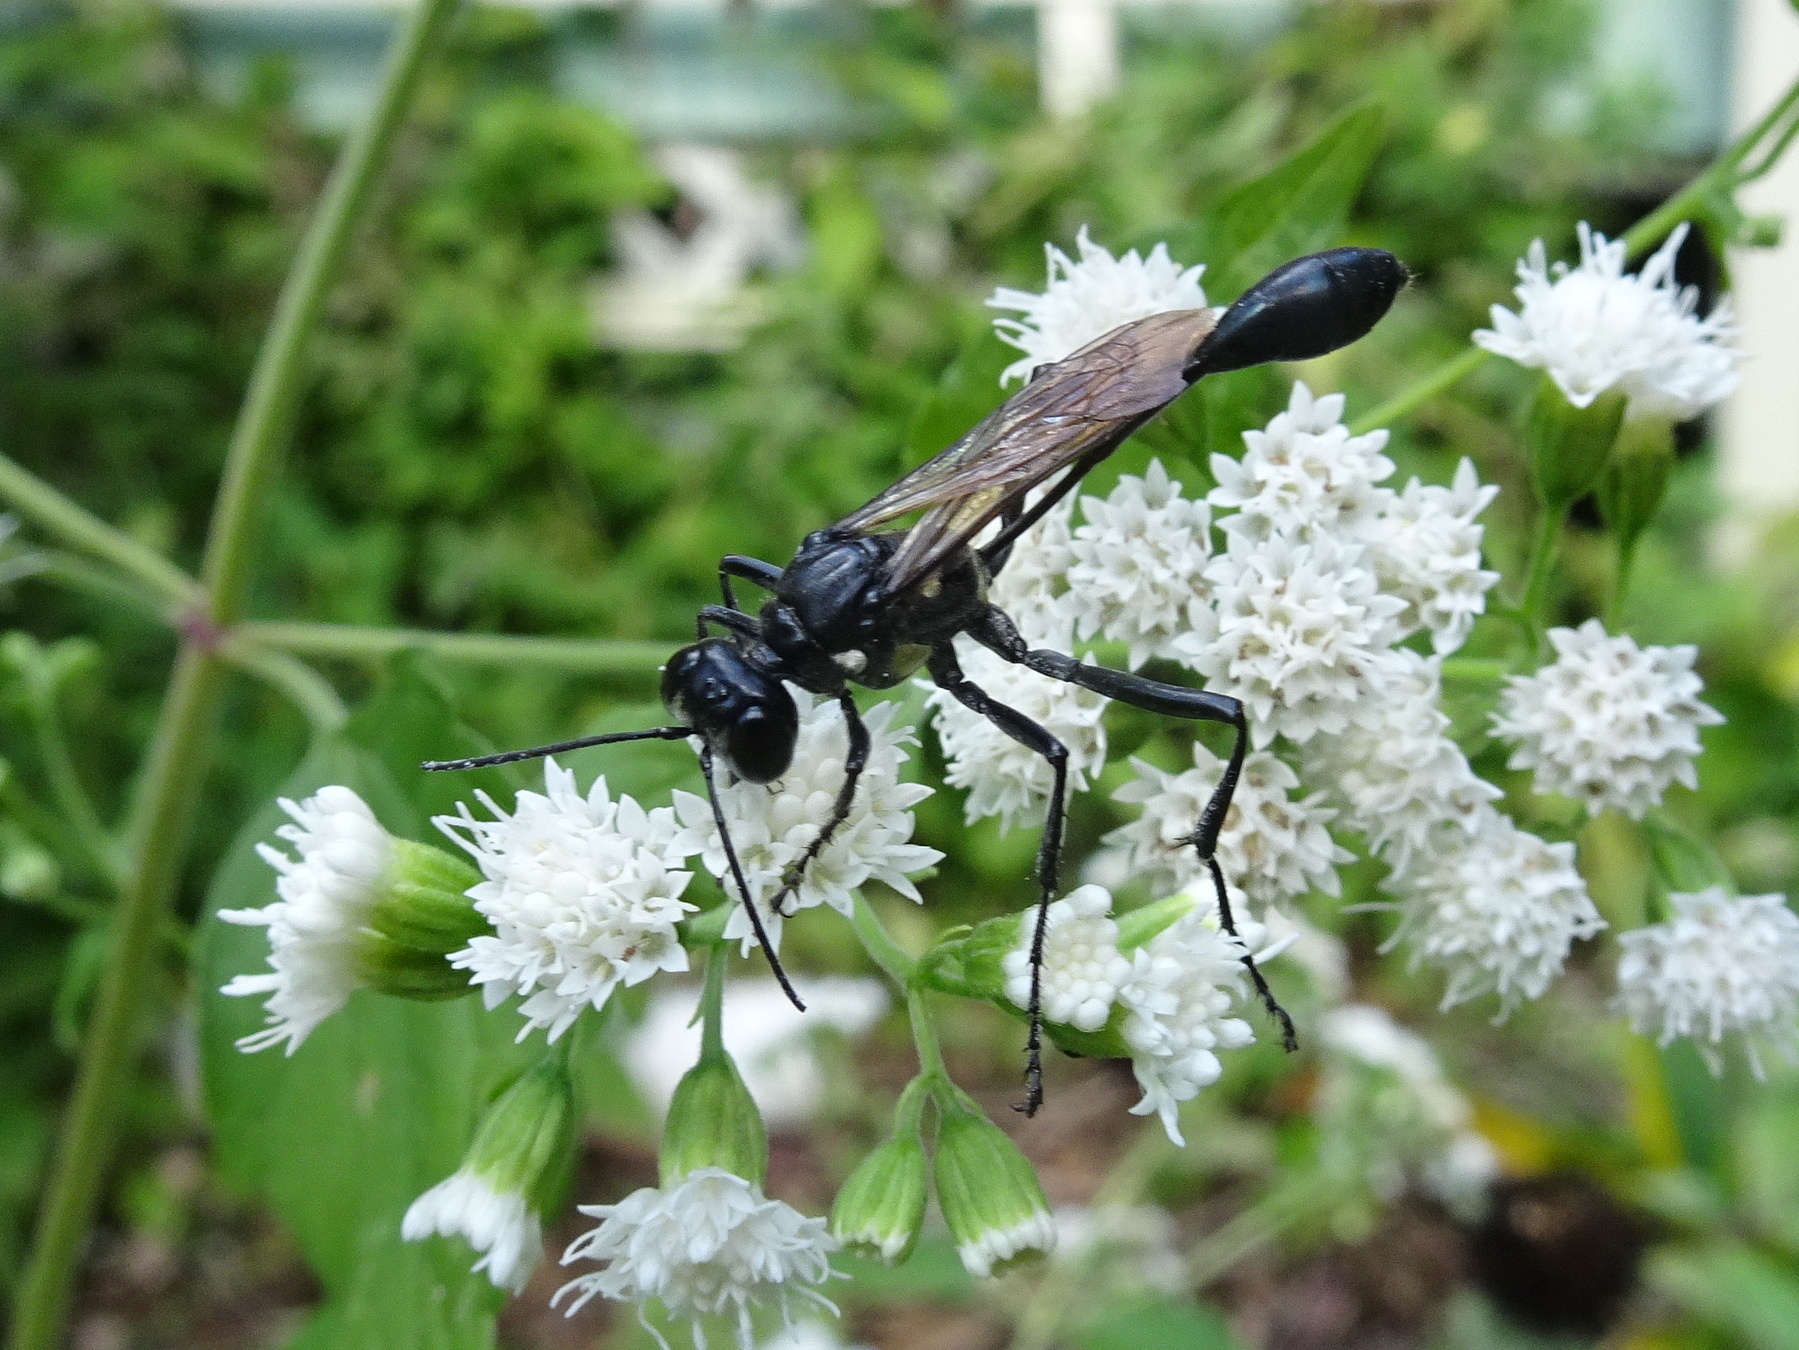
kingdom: Animalia
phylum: Arthropoda
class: Insecta
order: Hymenoptera
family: Sphecidae
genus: Eremnophila
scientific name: Eremnophila aureonotata
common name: Gold-marked thread-waisted wasp
